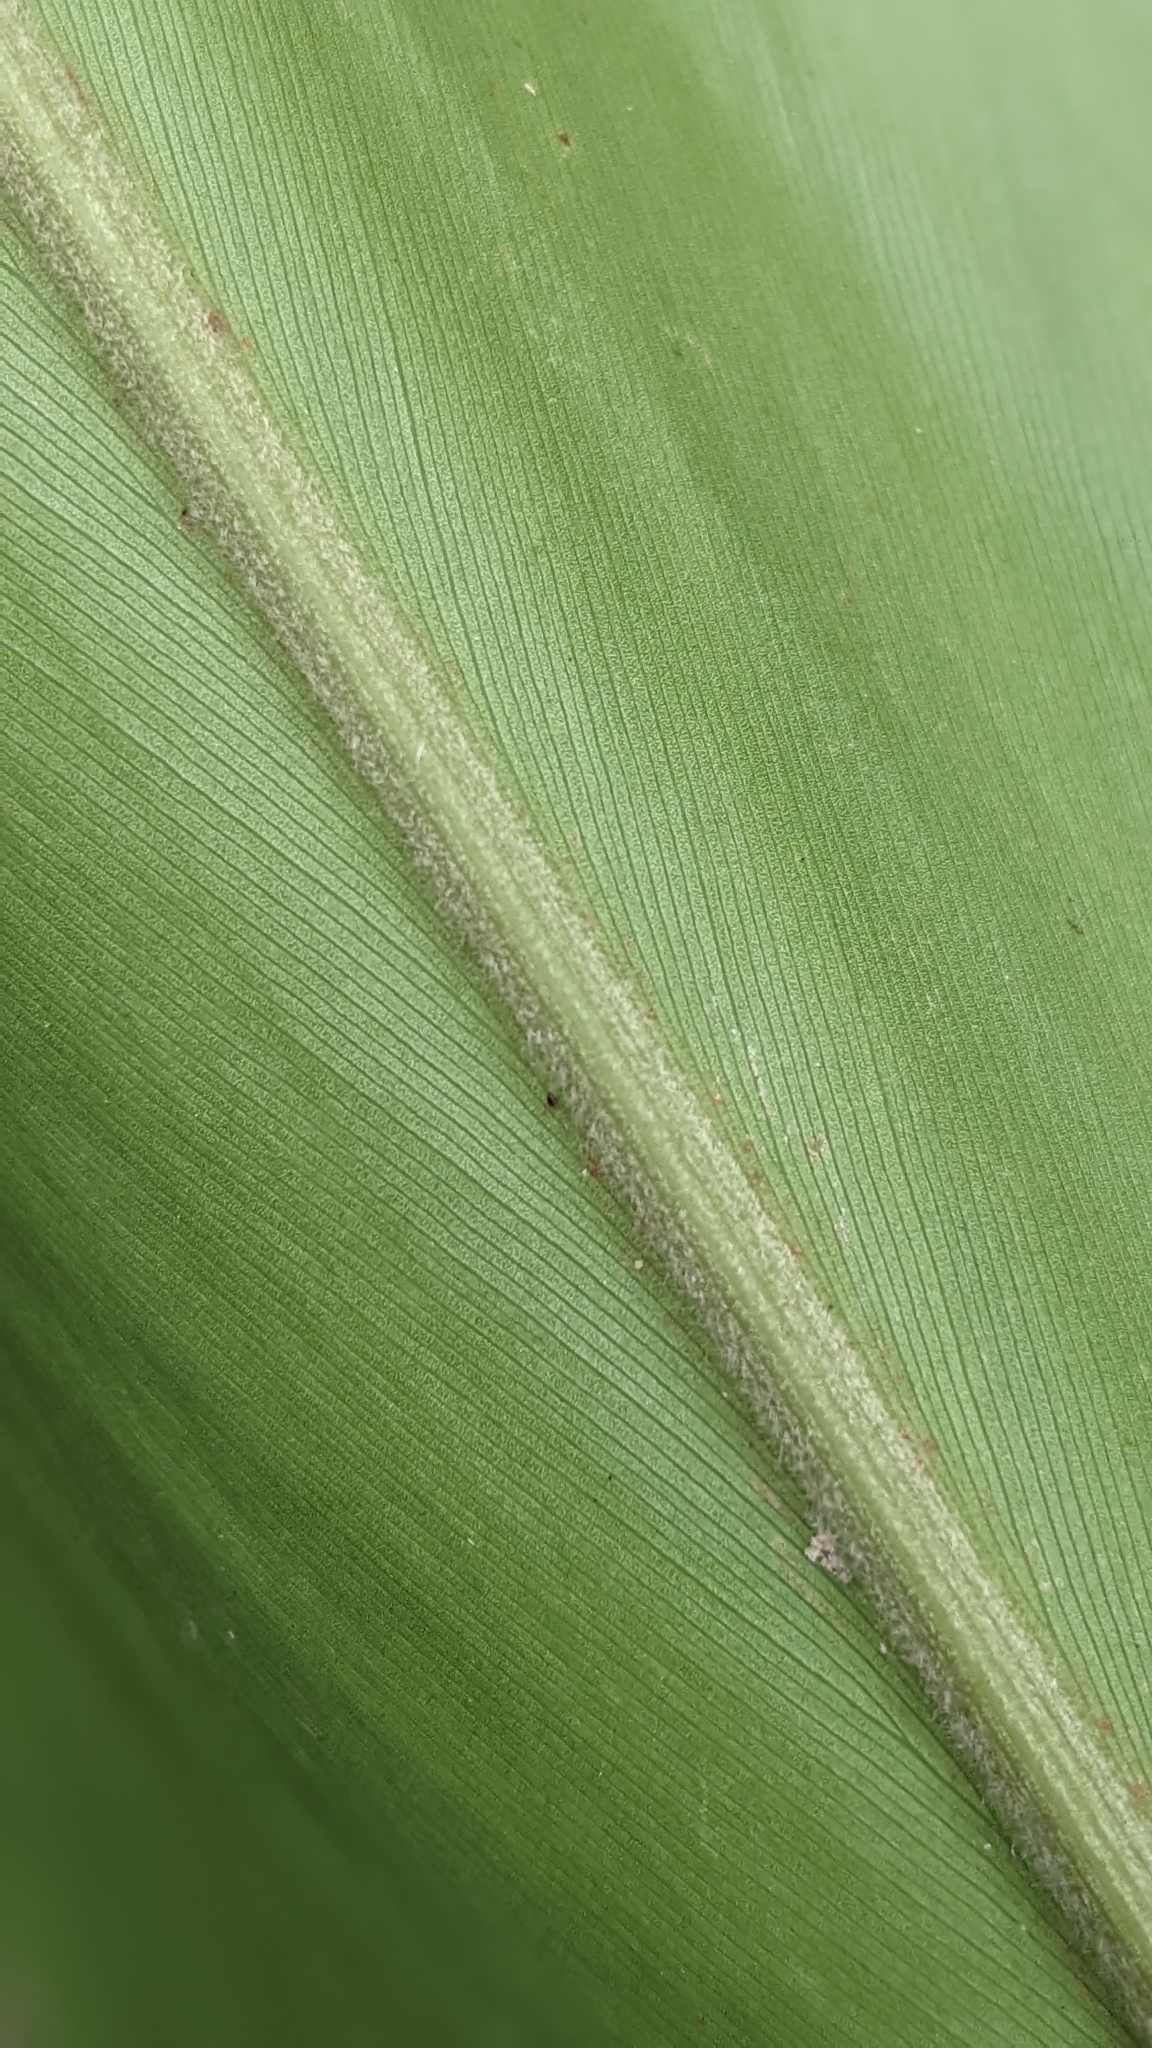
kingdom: Plantae
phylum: Tracheophyta
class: Liliopsida
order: Zingiberales
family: Zingiberaceae
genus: Alpinia
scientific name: Alpinia sessiliflora
